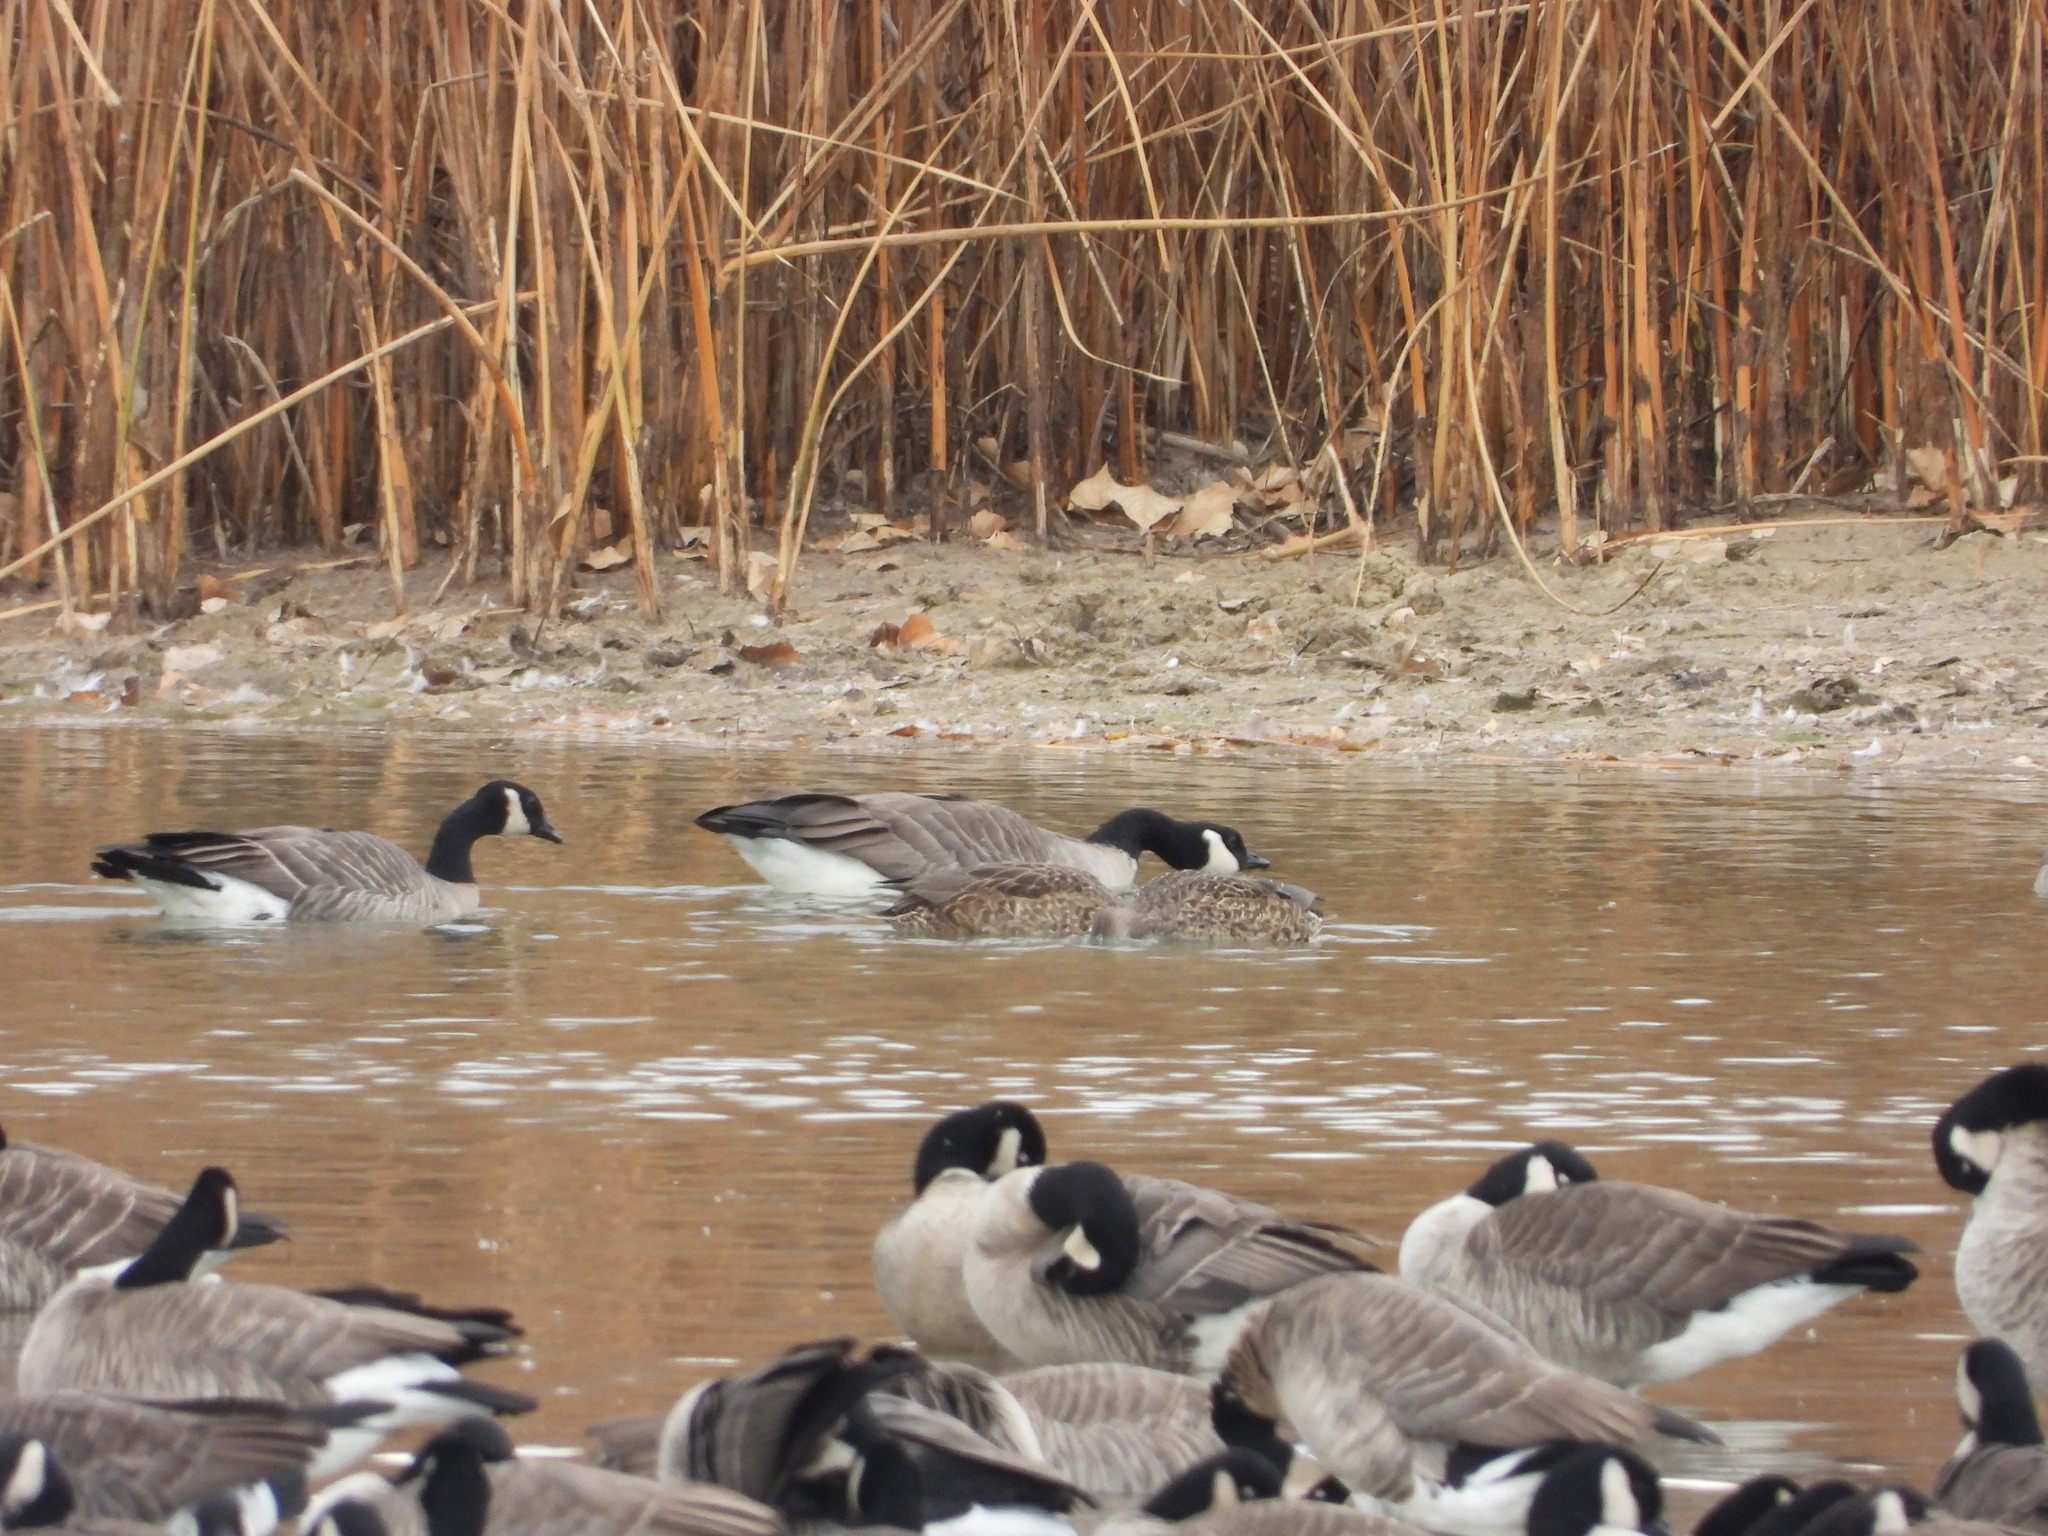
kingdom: Animalia
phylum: Chordata
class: Aves
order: Anseriformes
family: Anatidae
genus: Anas
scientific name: Anas platyrhynchos
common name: Mallard
